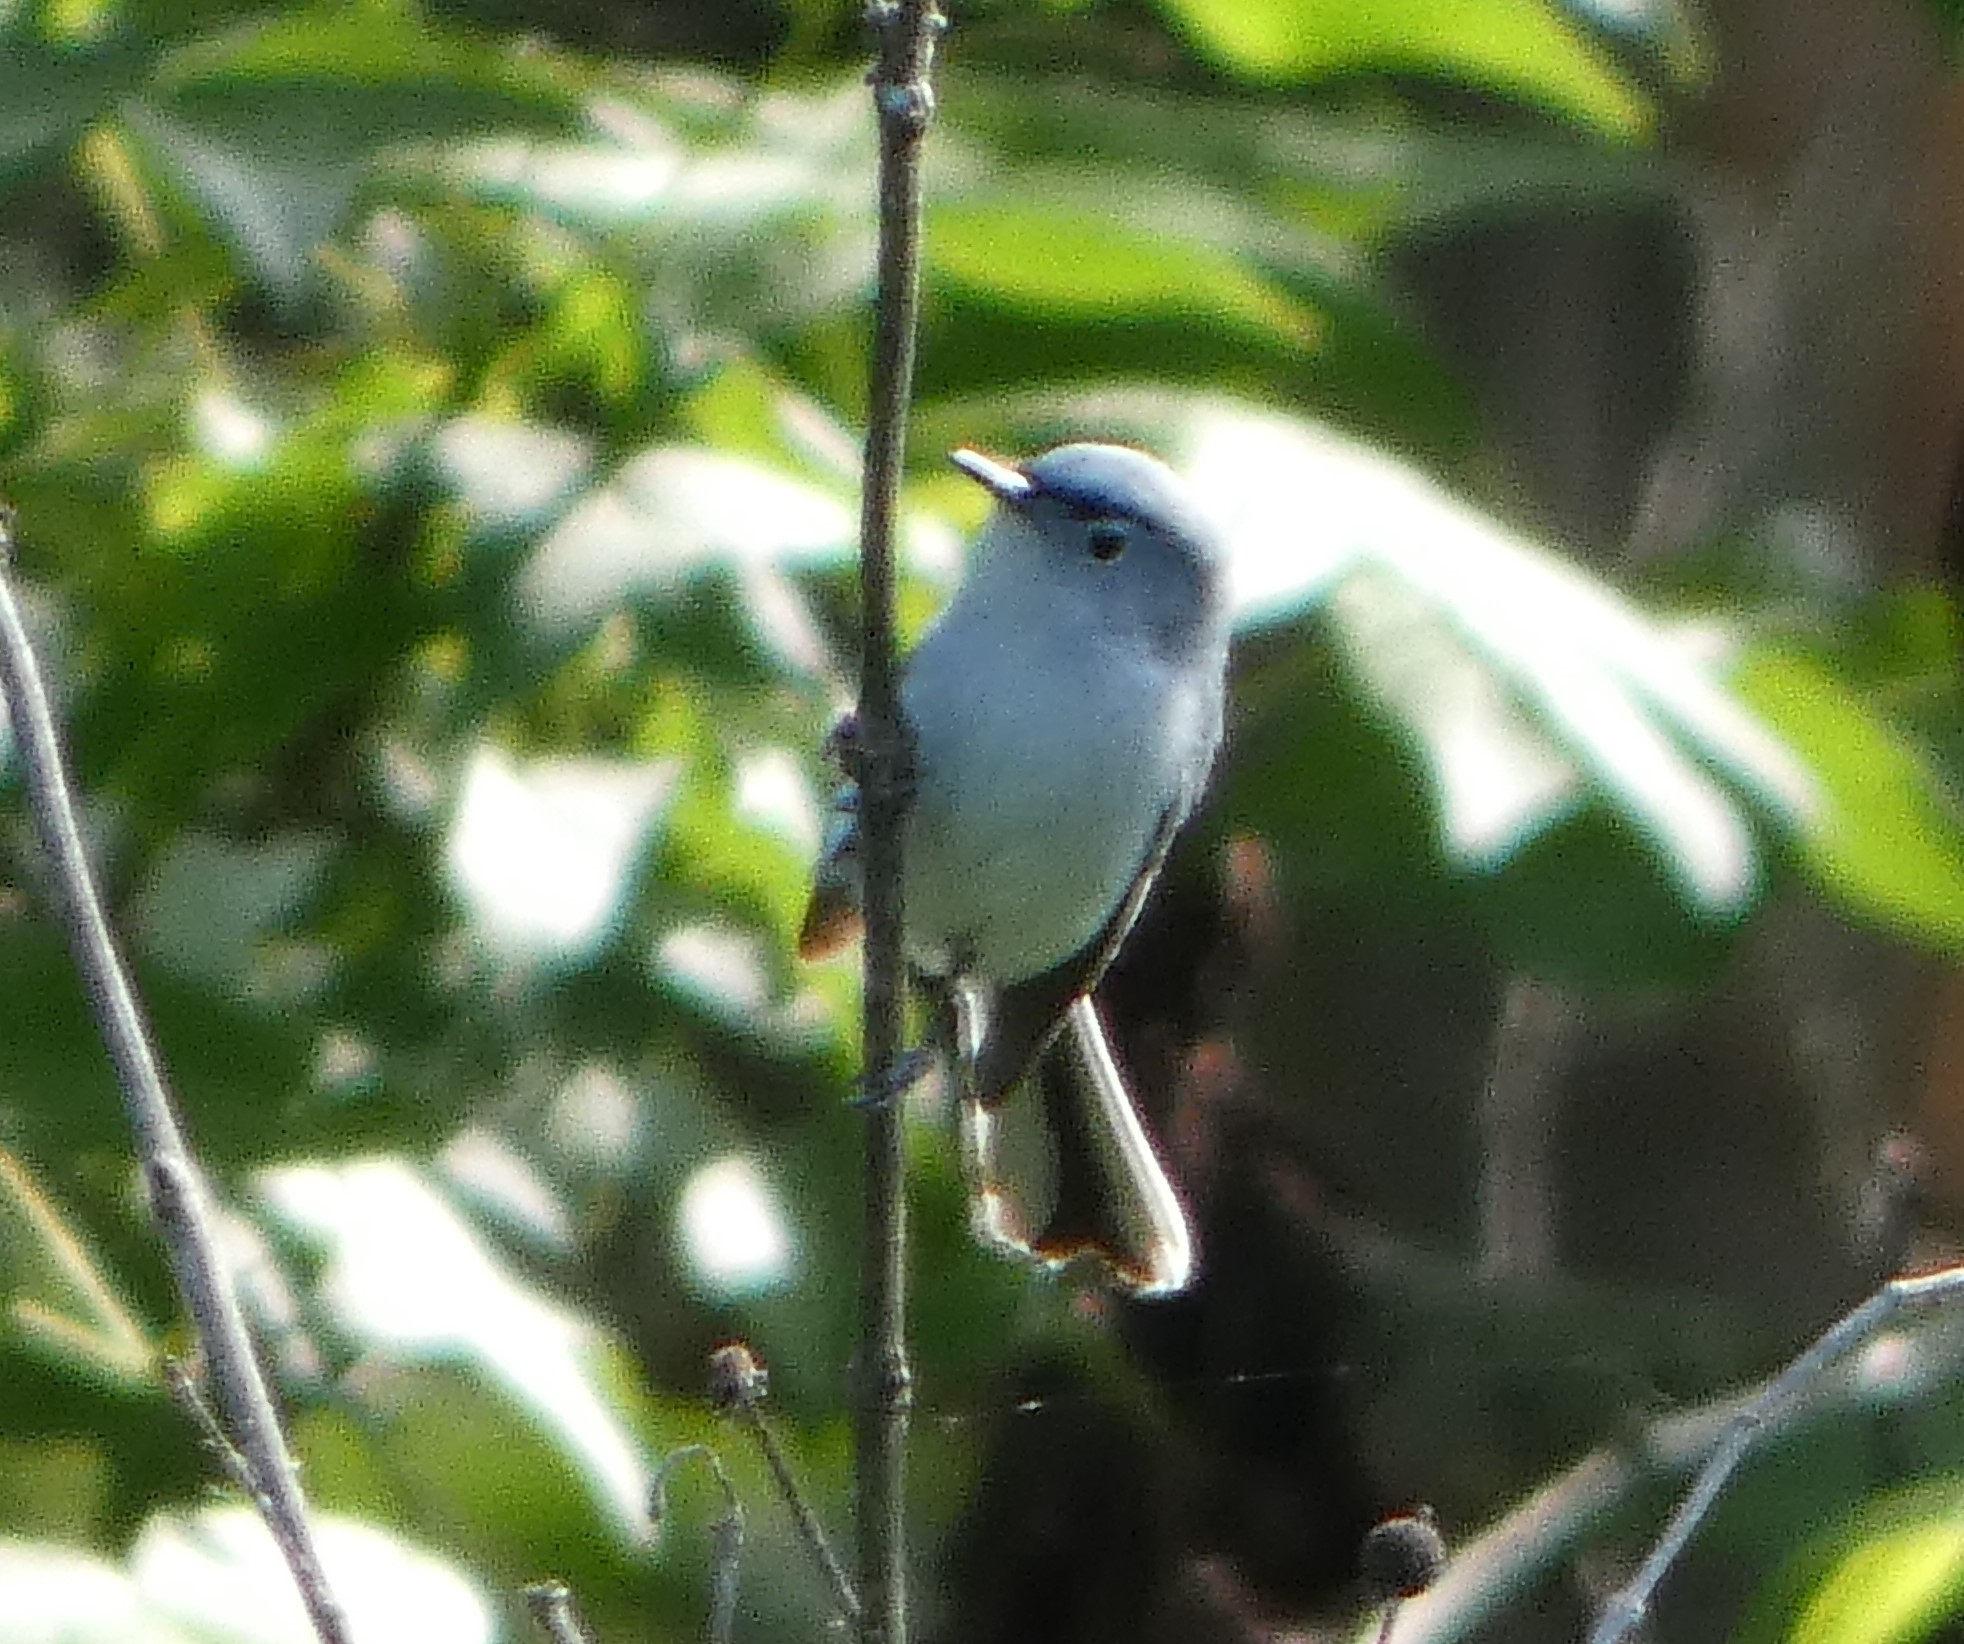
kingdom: Animalia
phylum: Chordata
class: Aves
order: Passeriformes
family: Polioptilidae
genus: Polioptila
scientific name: Polioptila caerulea
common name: Blue-gray gnatcatcher
